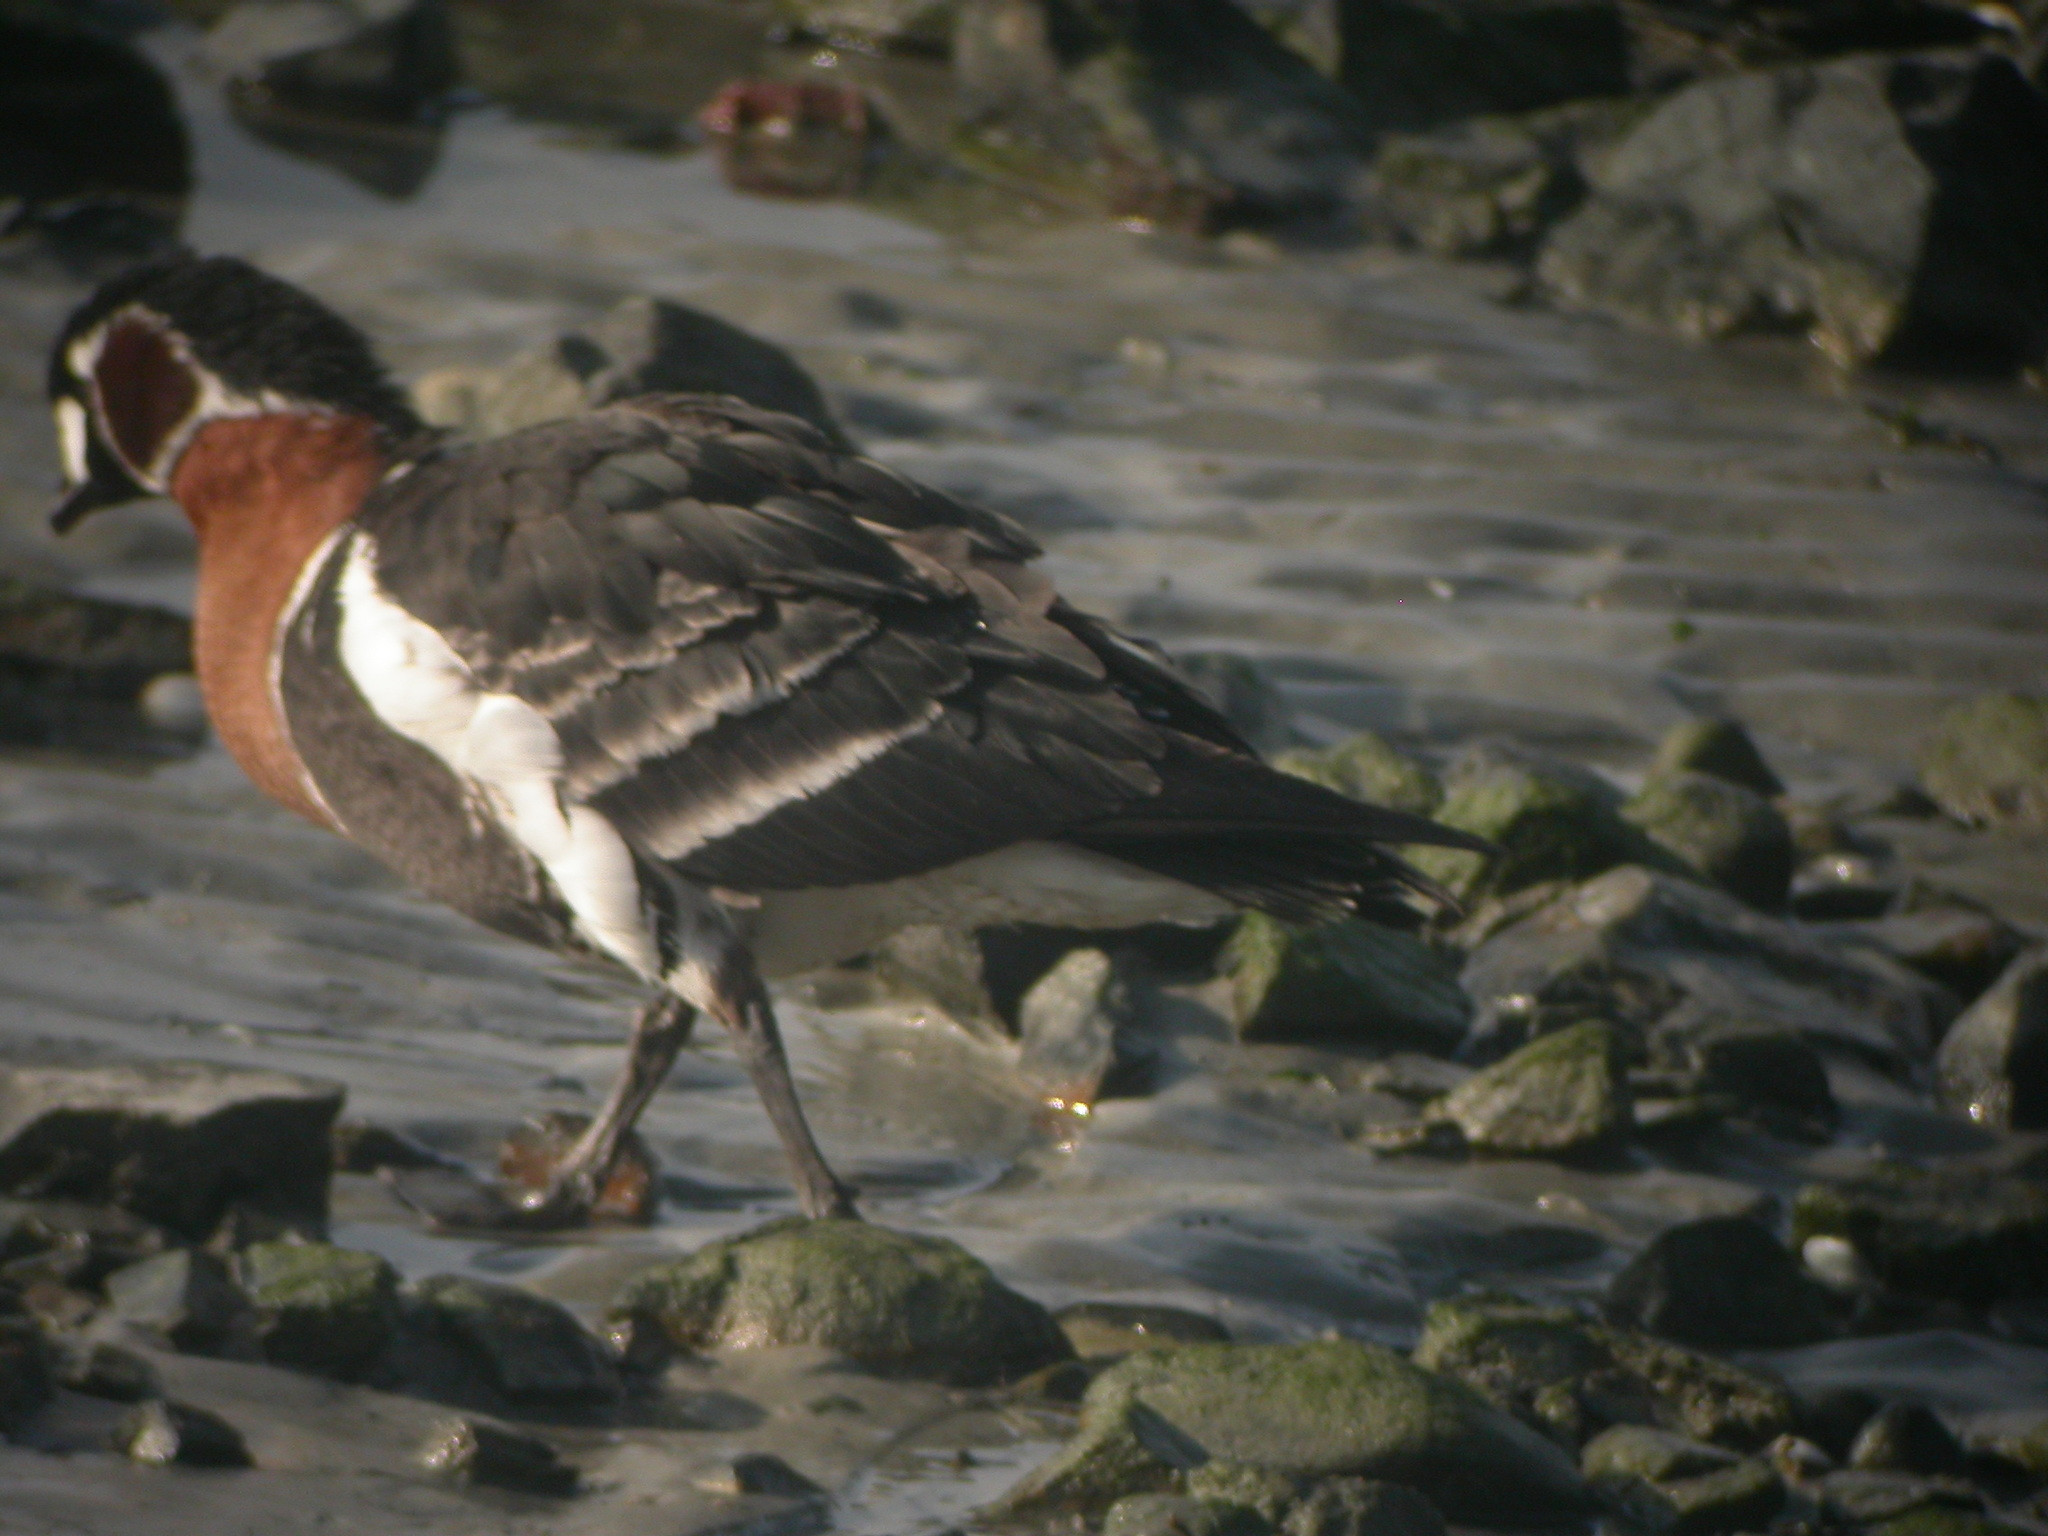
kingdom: Animalia
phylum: Chordata
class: Aves
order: Anseriformes
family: Anatidae
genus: Branta
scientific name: Branta ruficollis
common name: Red-breasted goose
